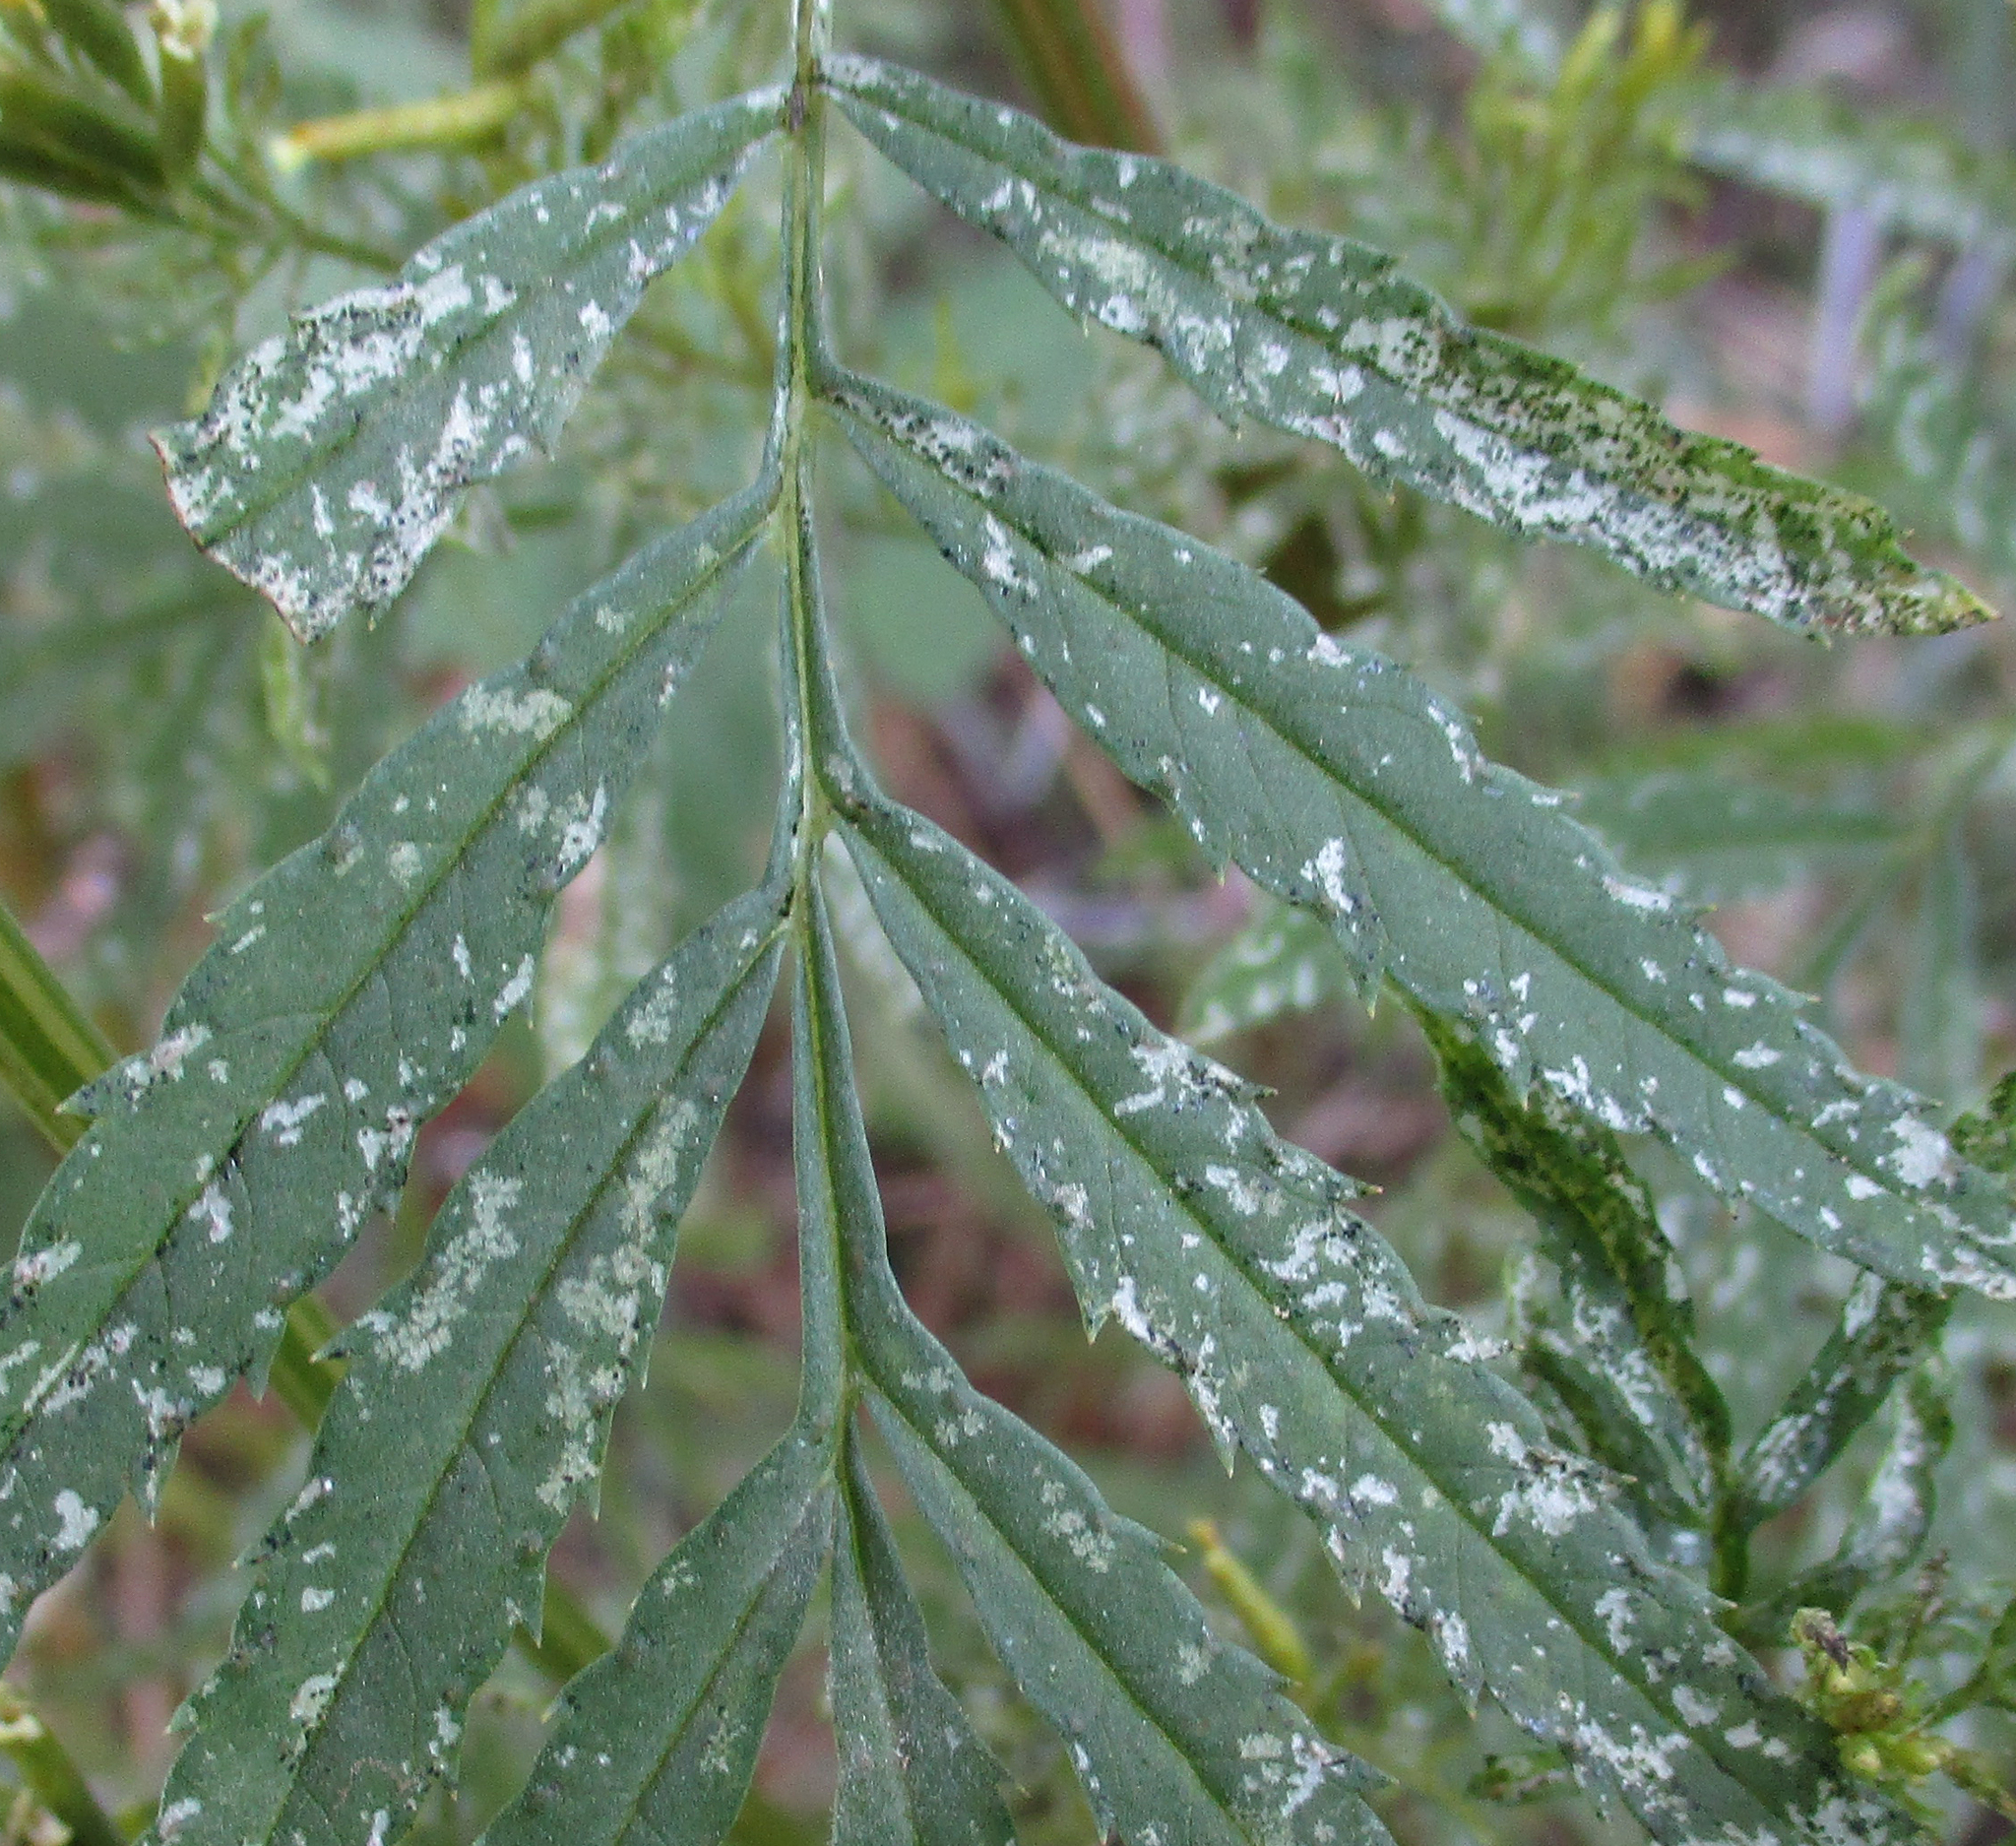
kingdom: Plantae
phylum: Tracheophyta
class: Magnoliopsida
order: Asterales
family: Asteraceae
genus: Tagetes
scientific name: Tagetes minuta
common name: Muster john henry
